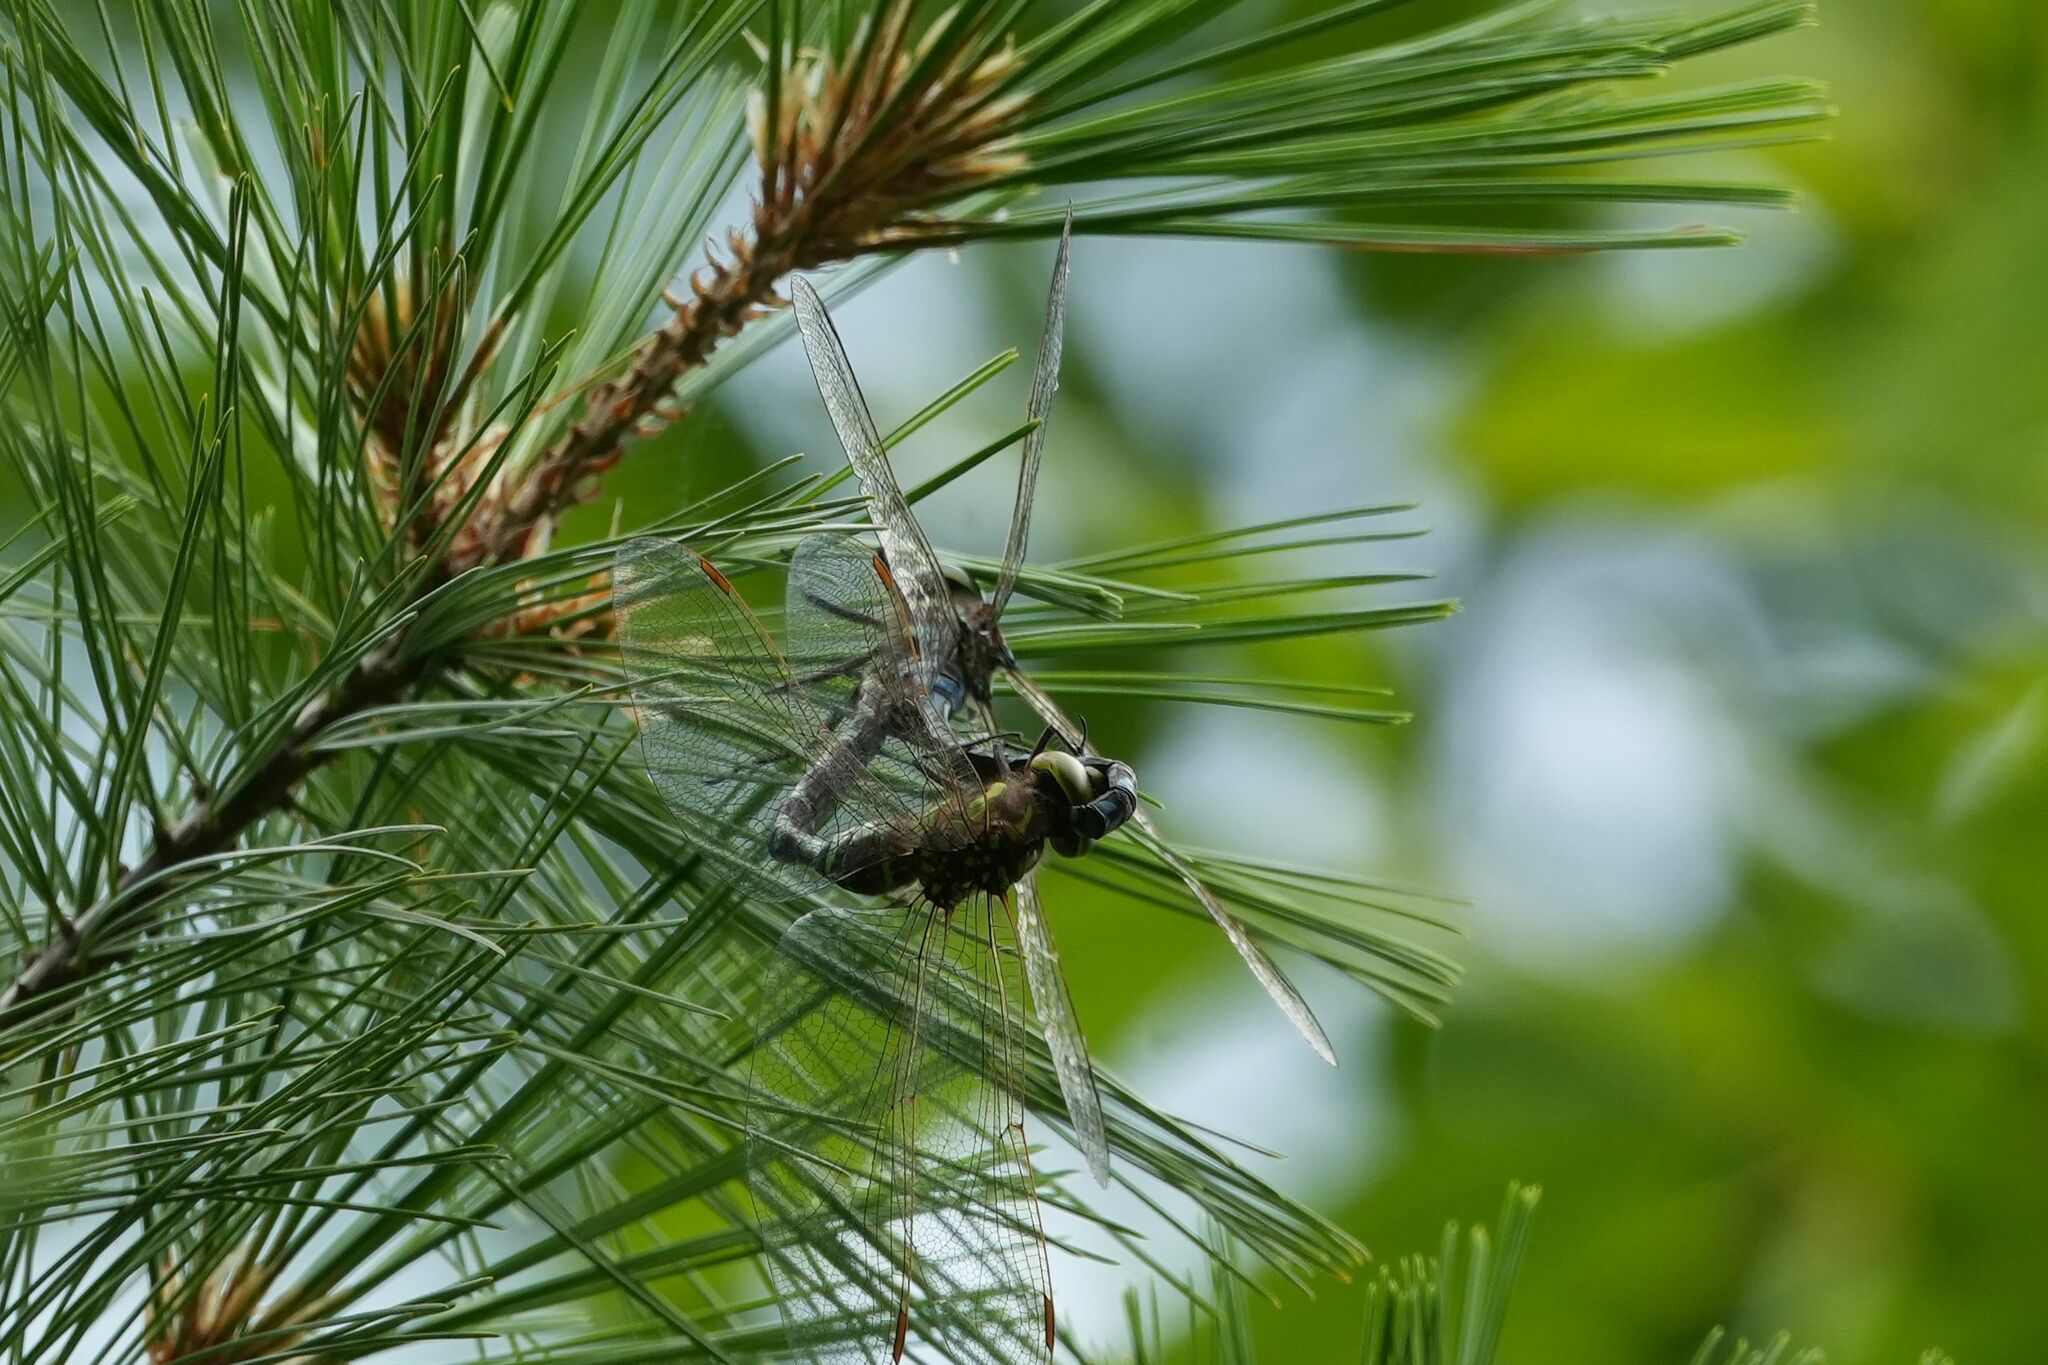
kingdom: Animalia
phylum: Arthropoda
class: Insecta
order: Odonata
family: Aeshnidae
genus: Aeshna
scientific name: Aeshna constricta
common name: Lance-tipped darner
